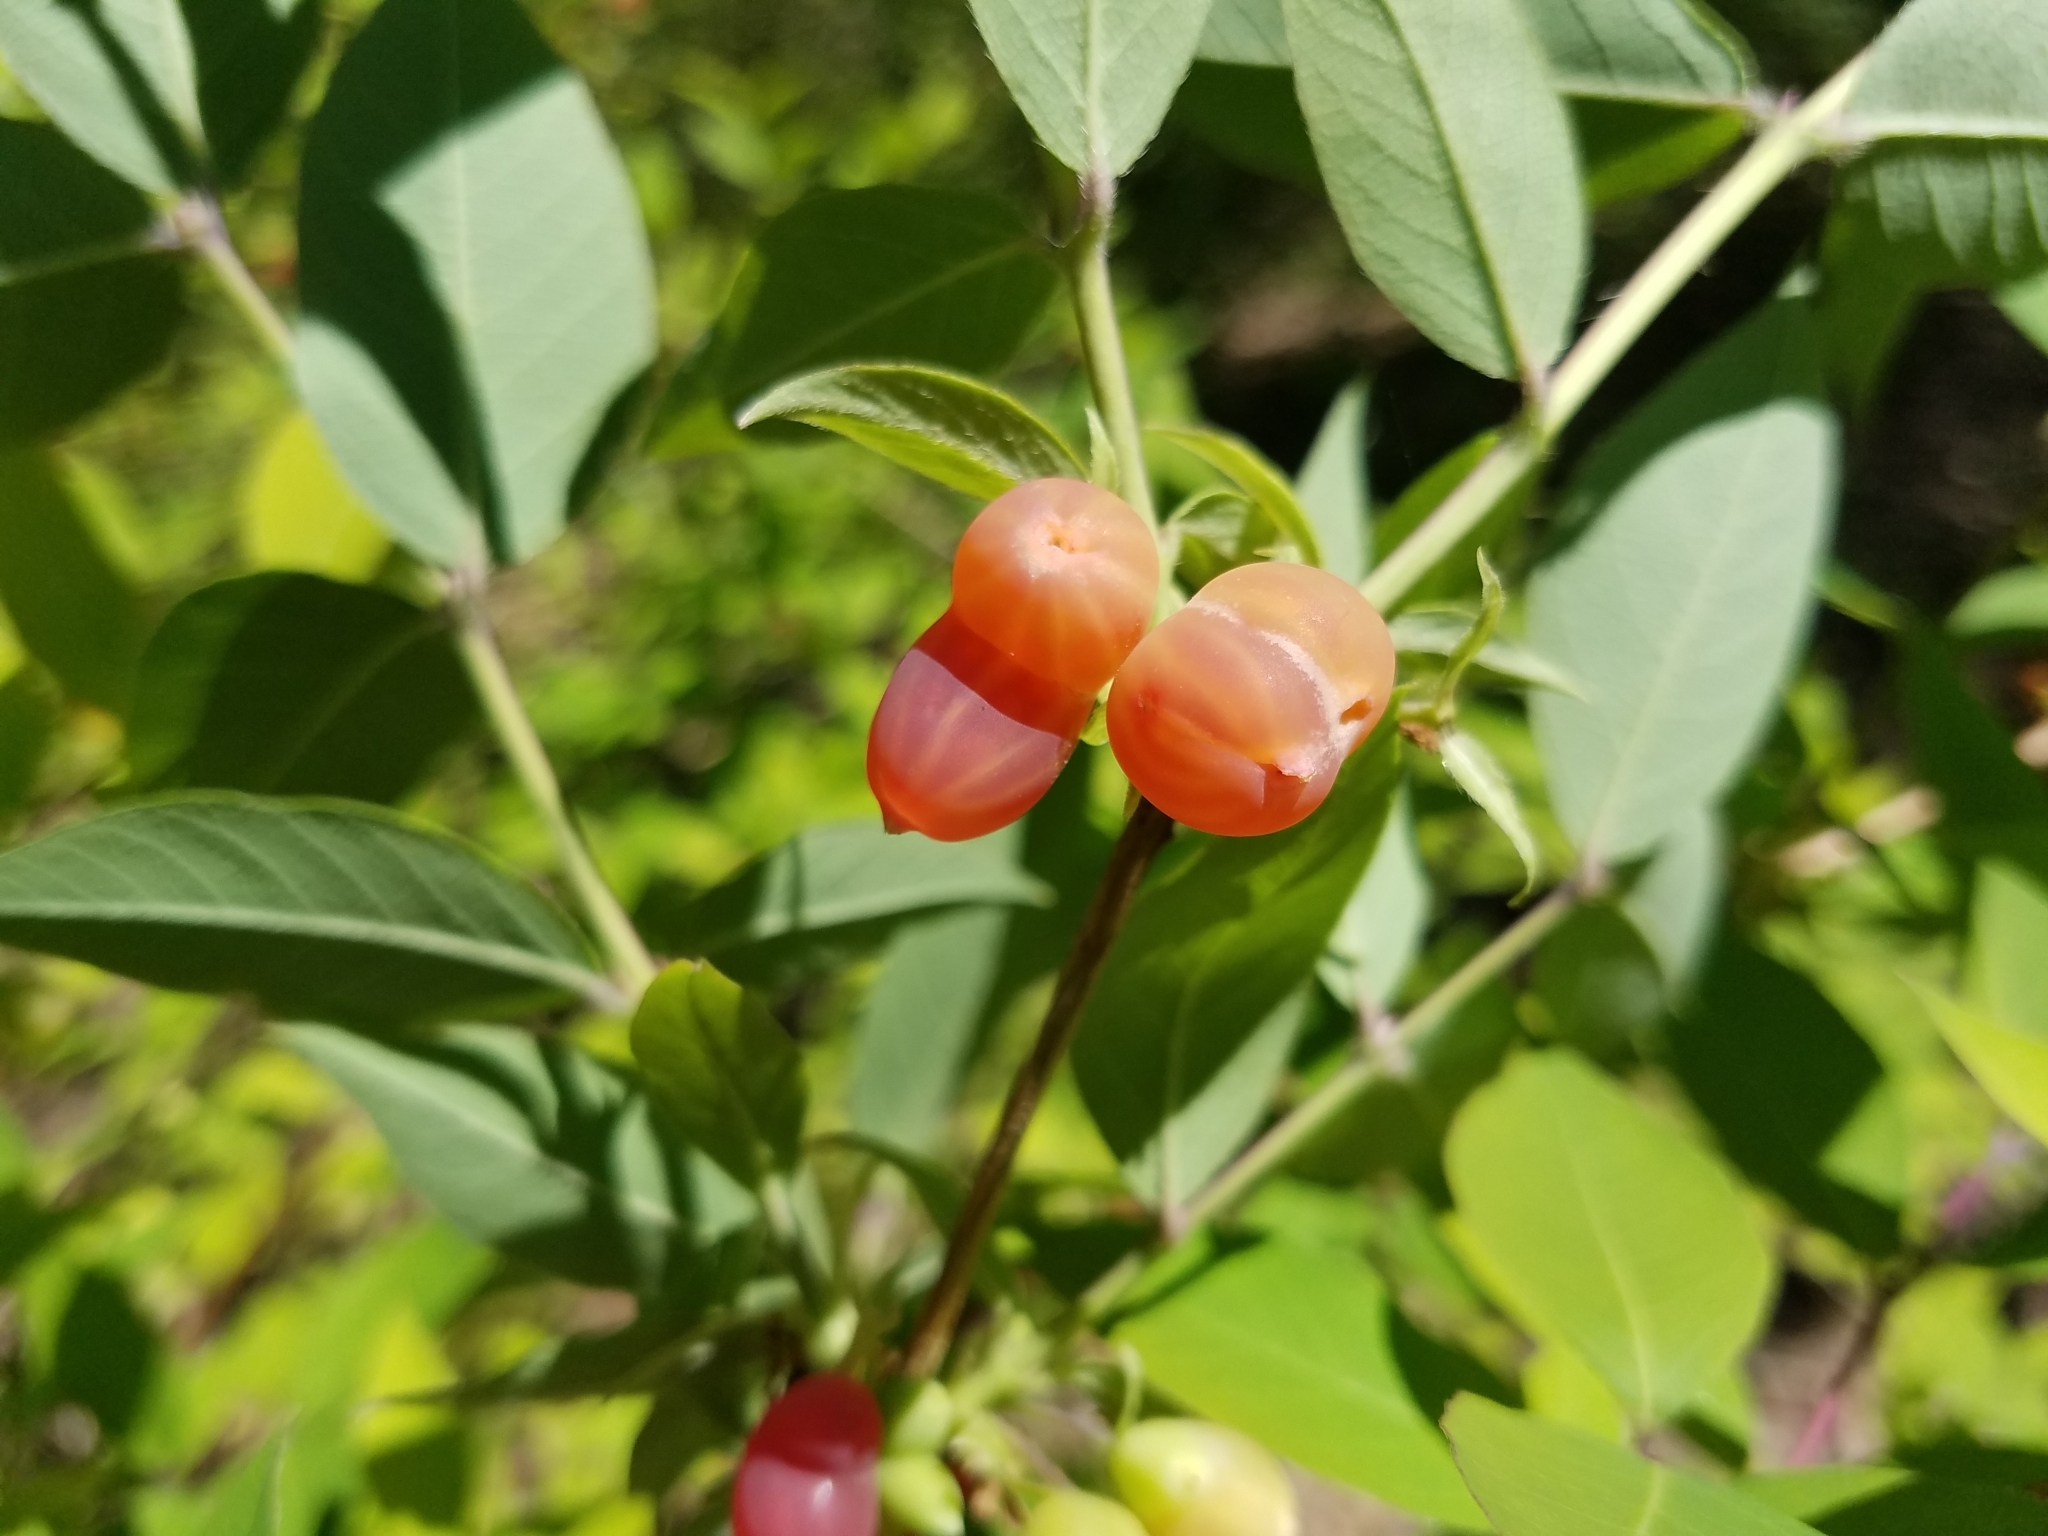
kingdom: Plantae
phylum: Tracheophyta
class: Magnoliopsida
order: Dipsacales
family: Caprifoliaceae
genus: Lonicera
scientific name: Lonicera fragrantissima
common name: Fragrant honeysuckle
